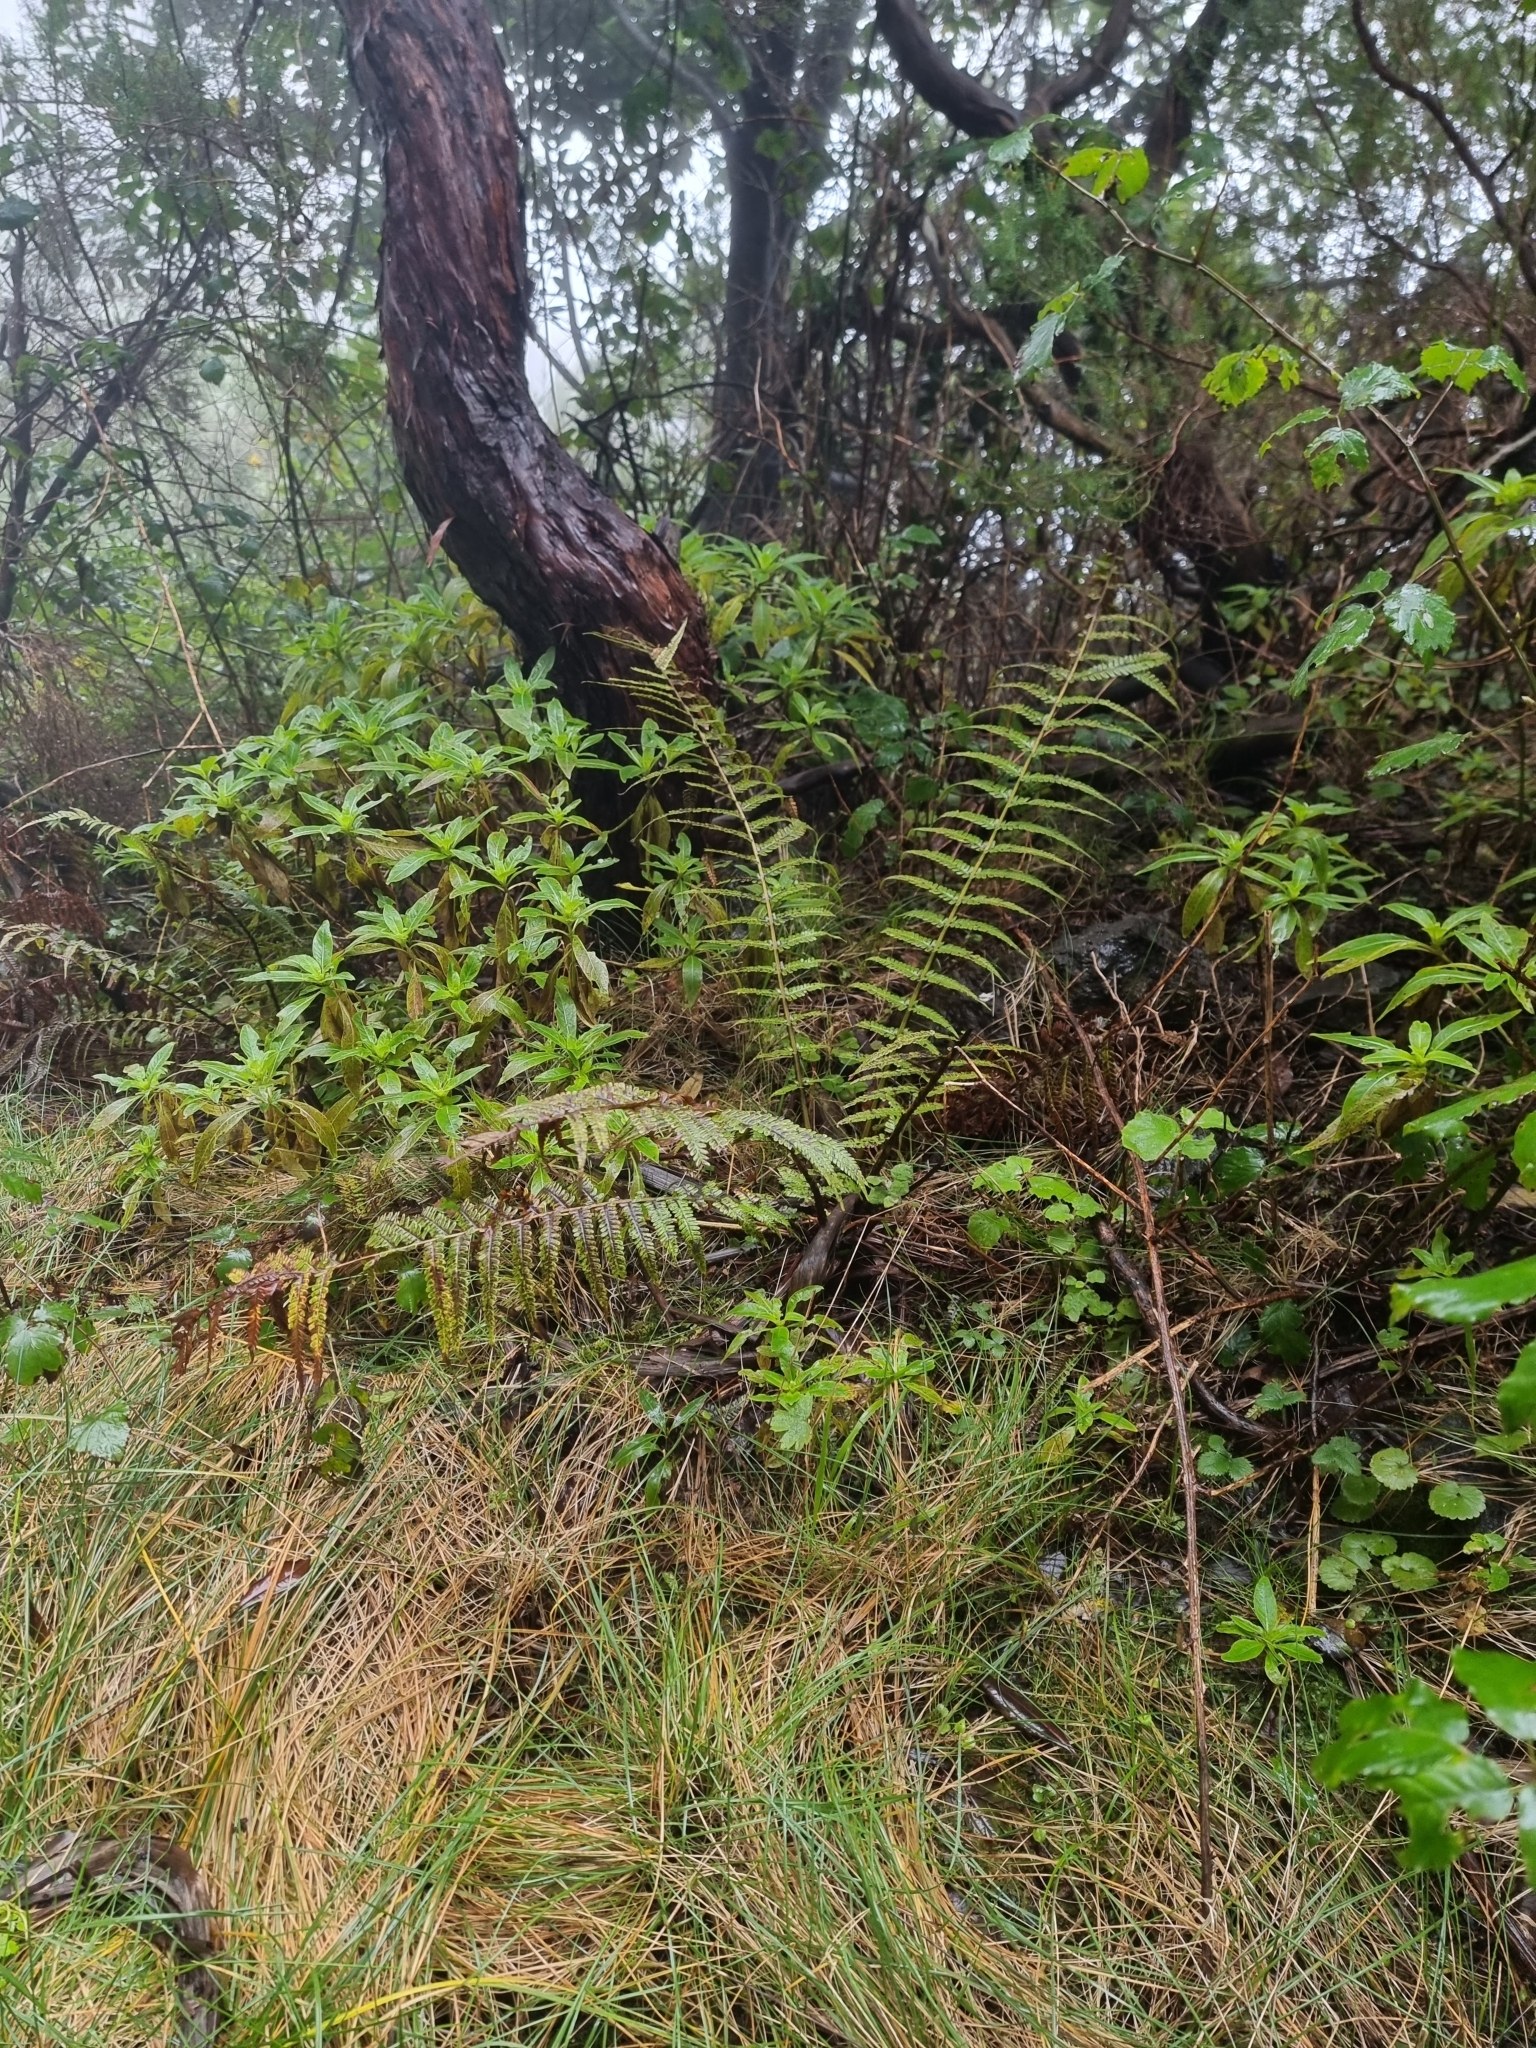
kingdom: Plantae
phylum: Tracheophyta
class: Polypodiopsida
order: Polypodiales
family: Dryopteridaceae
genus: Dryopteris
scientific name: Dryopteris affinis
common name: Scaly male fern
